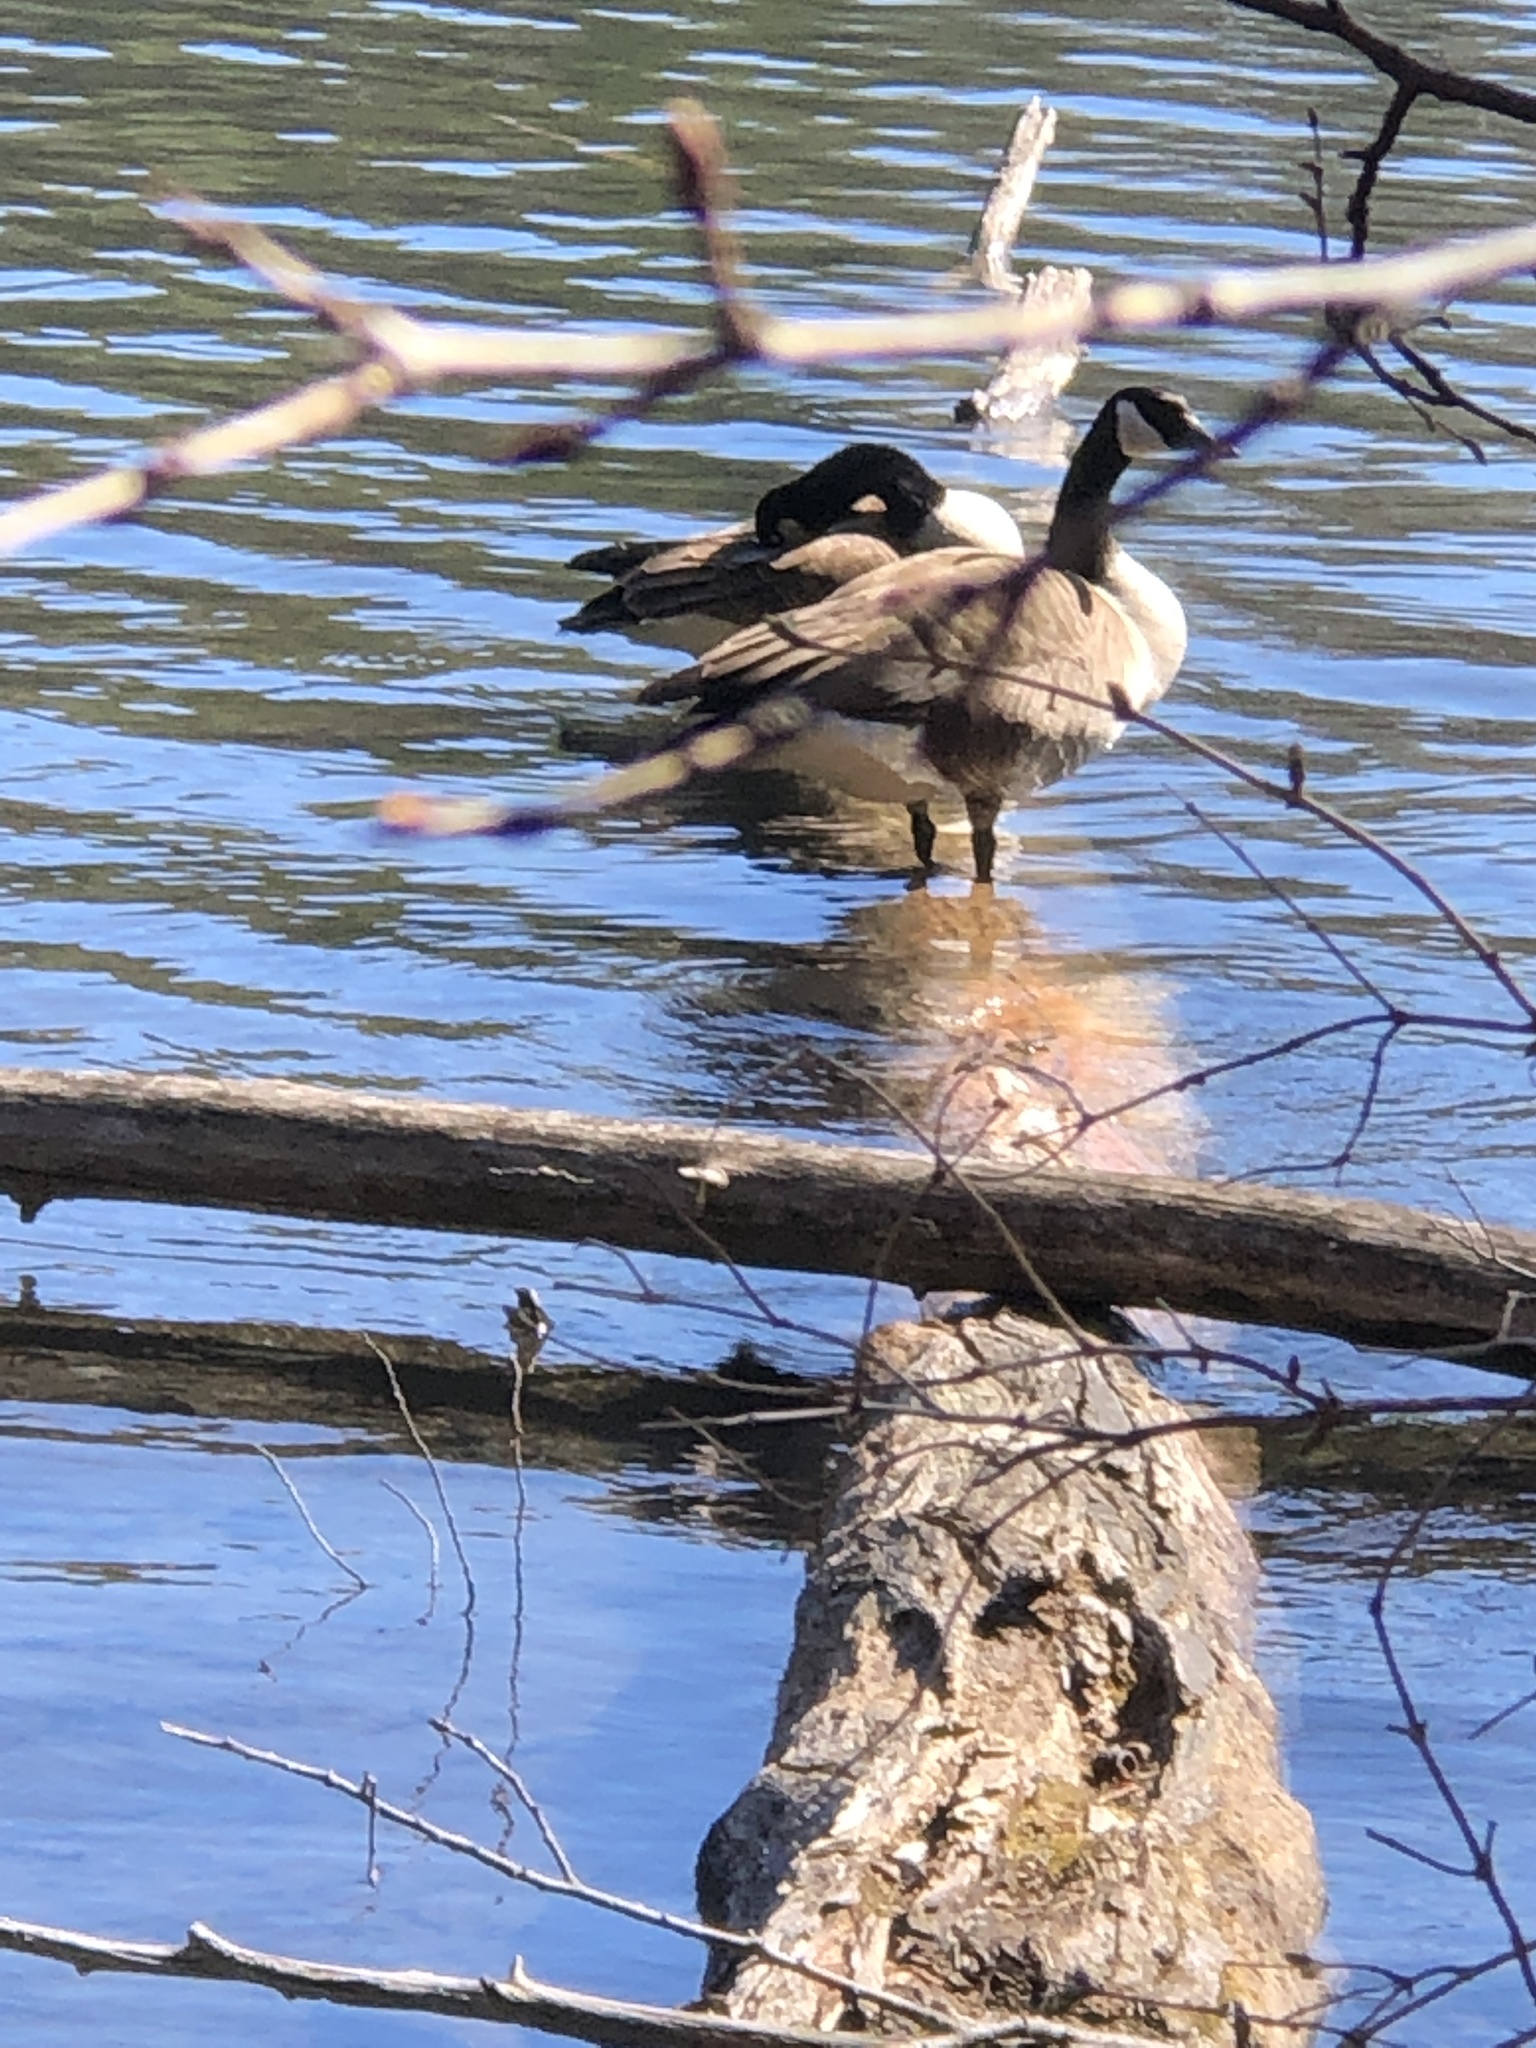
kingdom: Animalia
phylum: Chordata
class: Aves
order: Anseriformes
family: Anatidae
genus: Branta
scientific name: Branta canadensis
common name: Canada goose
